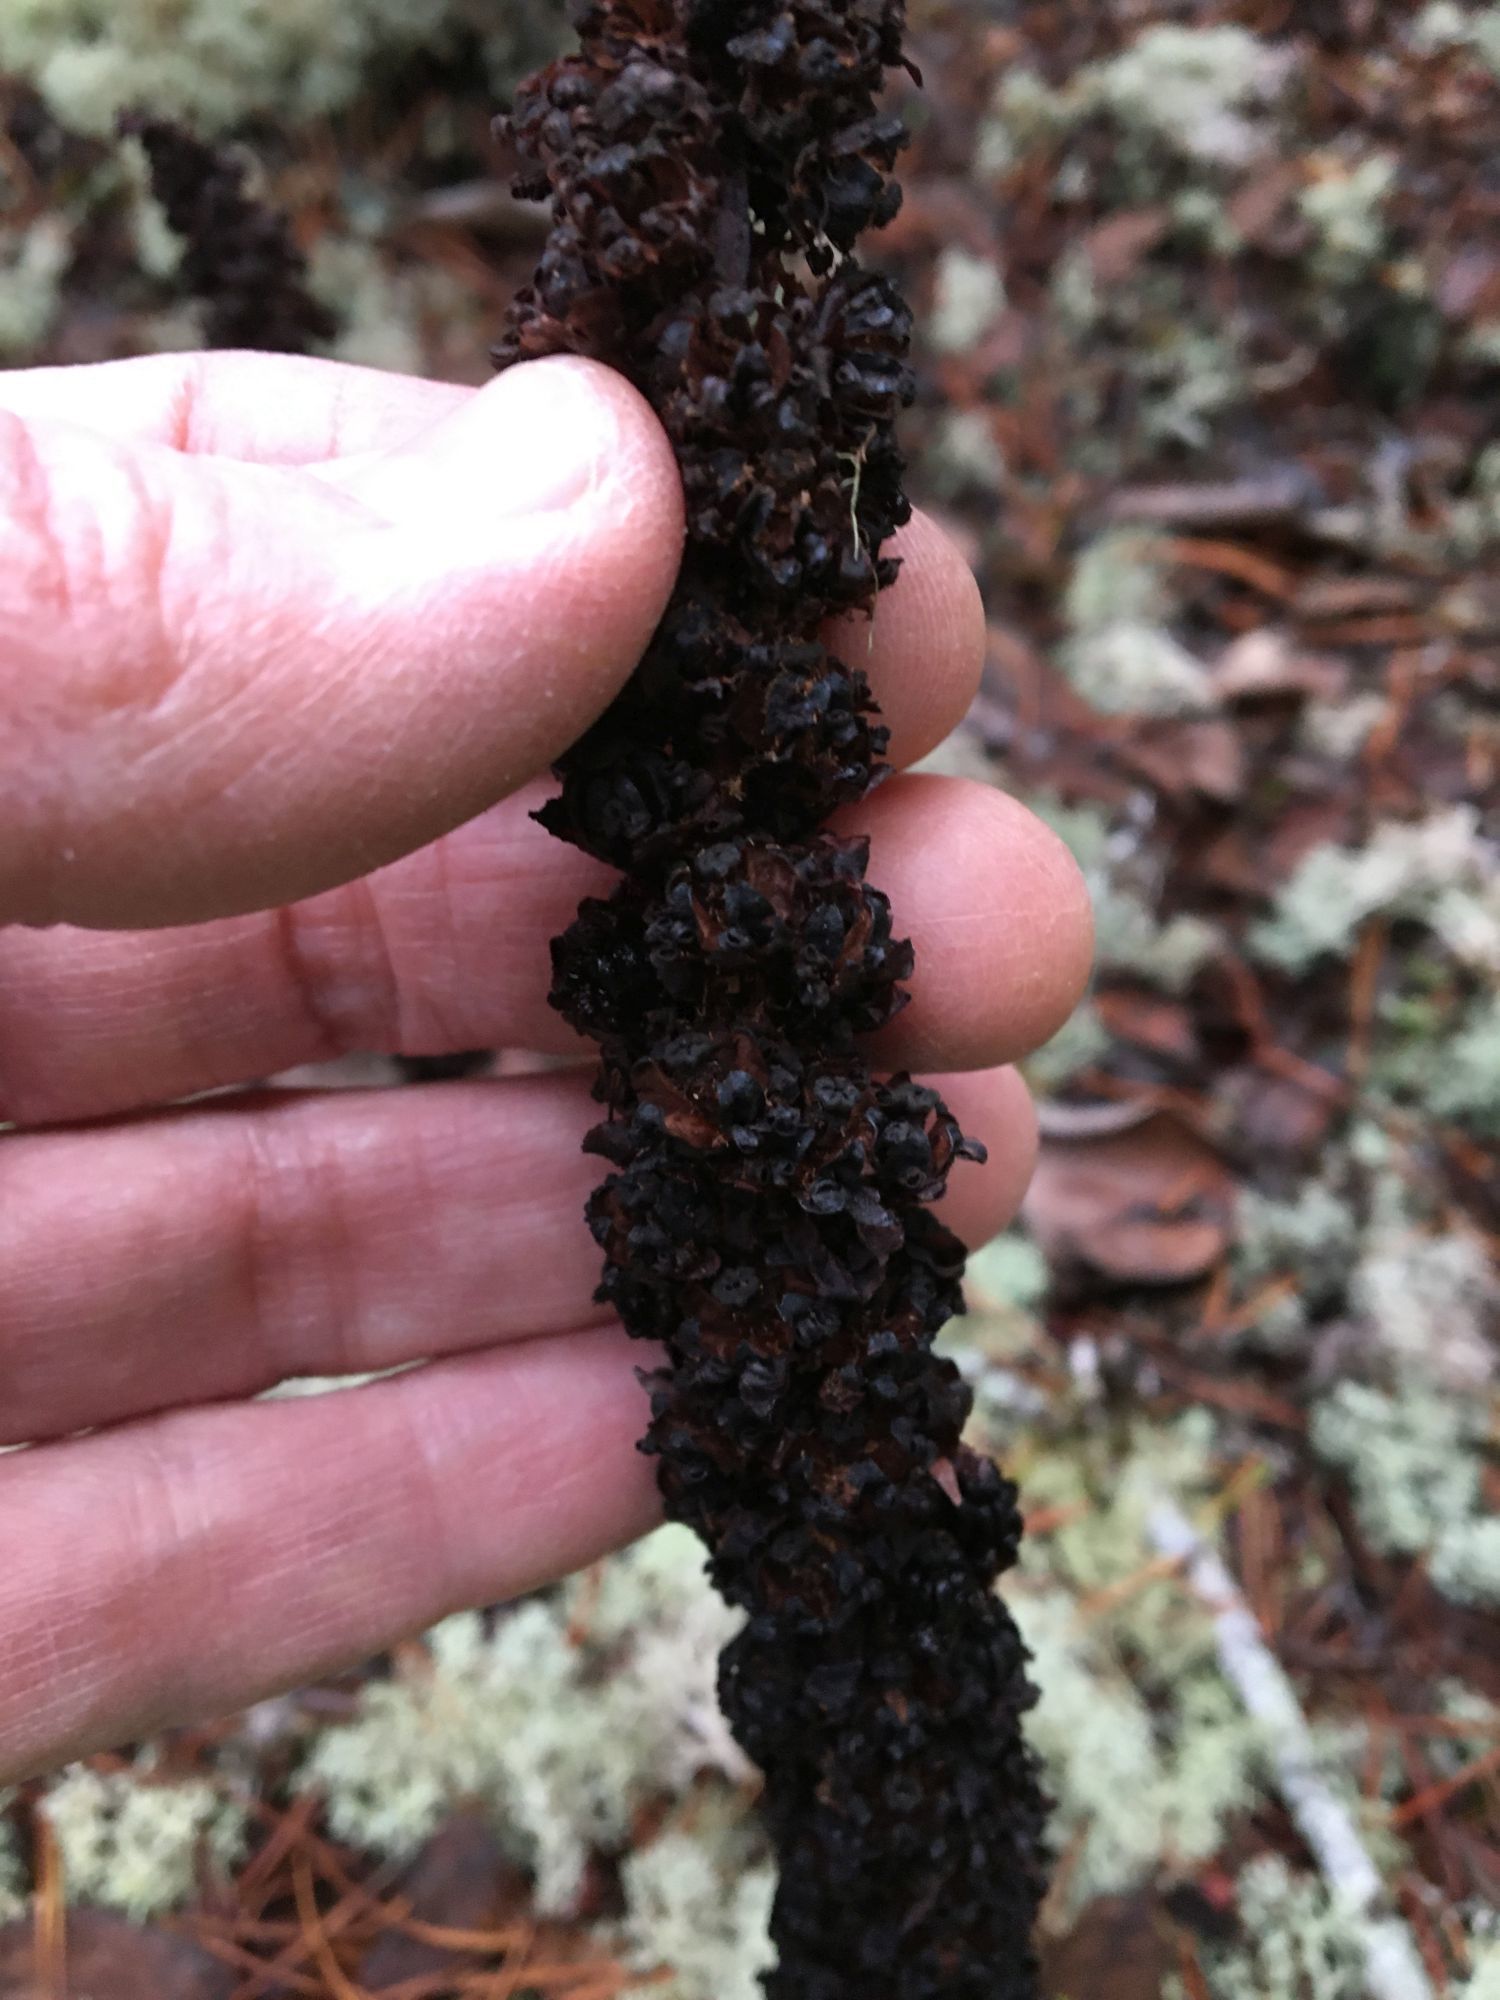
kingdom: Plantae
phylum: Tracheophyta
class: Magnoliopsida
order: Ericales
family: Ericaceae
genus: Allotropa
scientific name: Allotropa virgata
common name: Candy-striped allotropa
